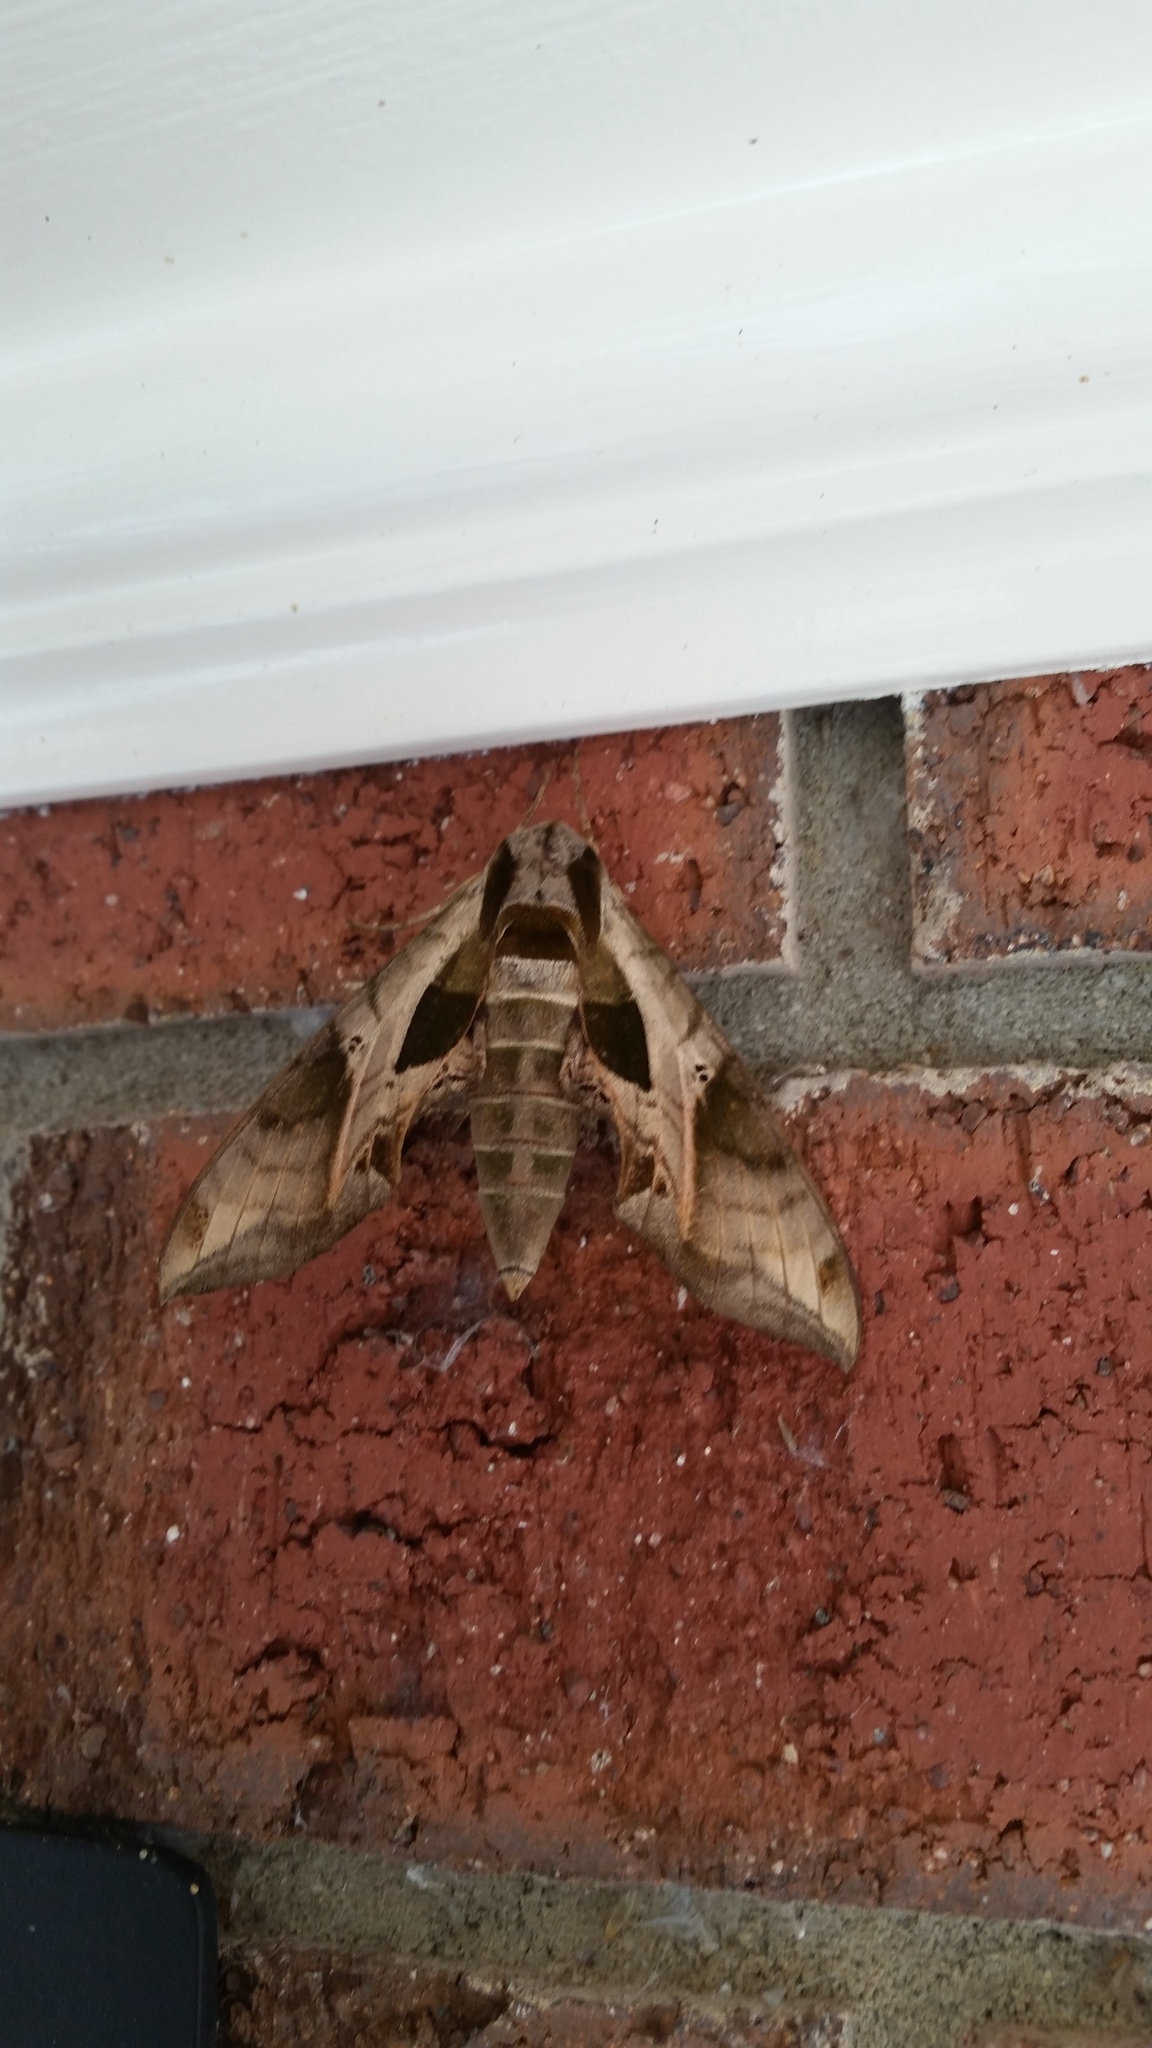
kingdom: Animalia
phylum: Arthropoda
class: Insecta
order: Lepidoptera
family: Sphingidae
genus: Eumorpha
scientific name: Eumorpha pandorus
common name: Pandora sphinx
